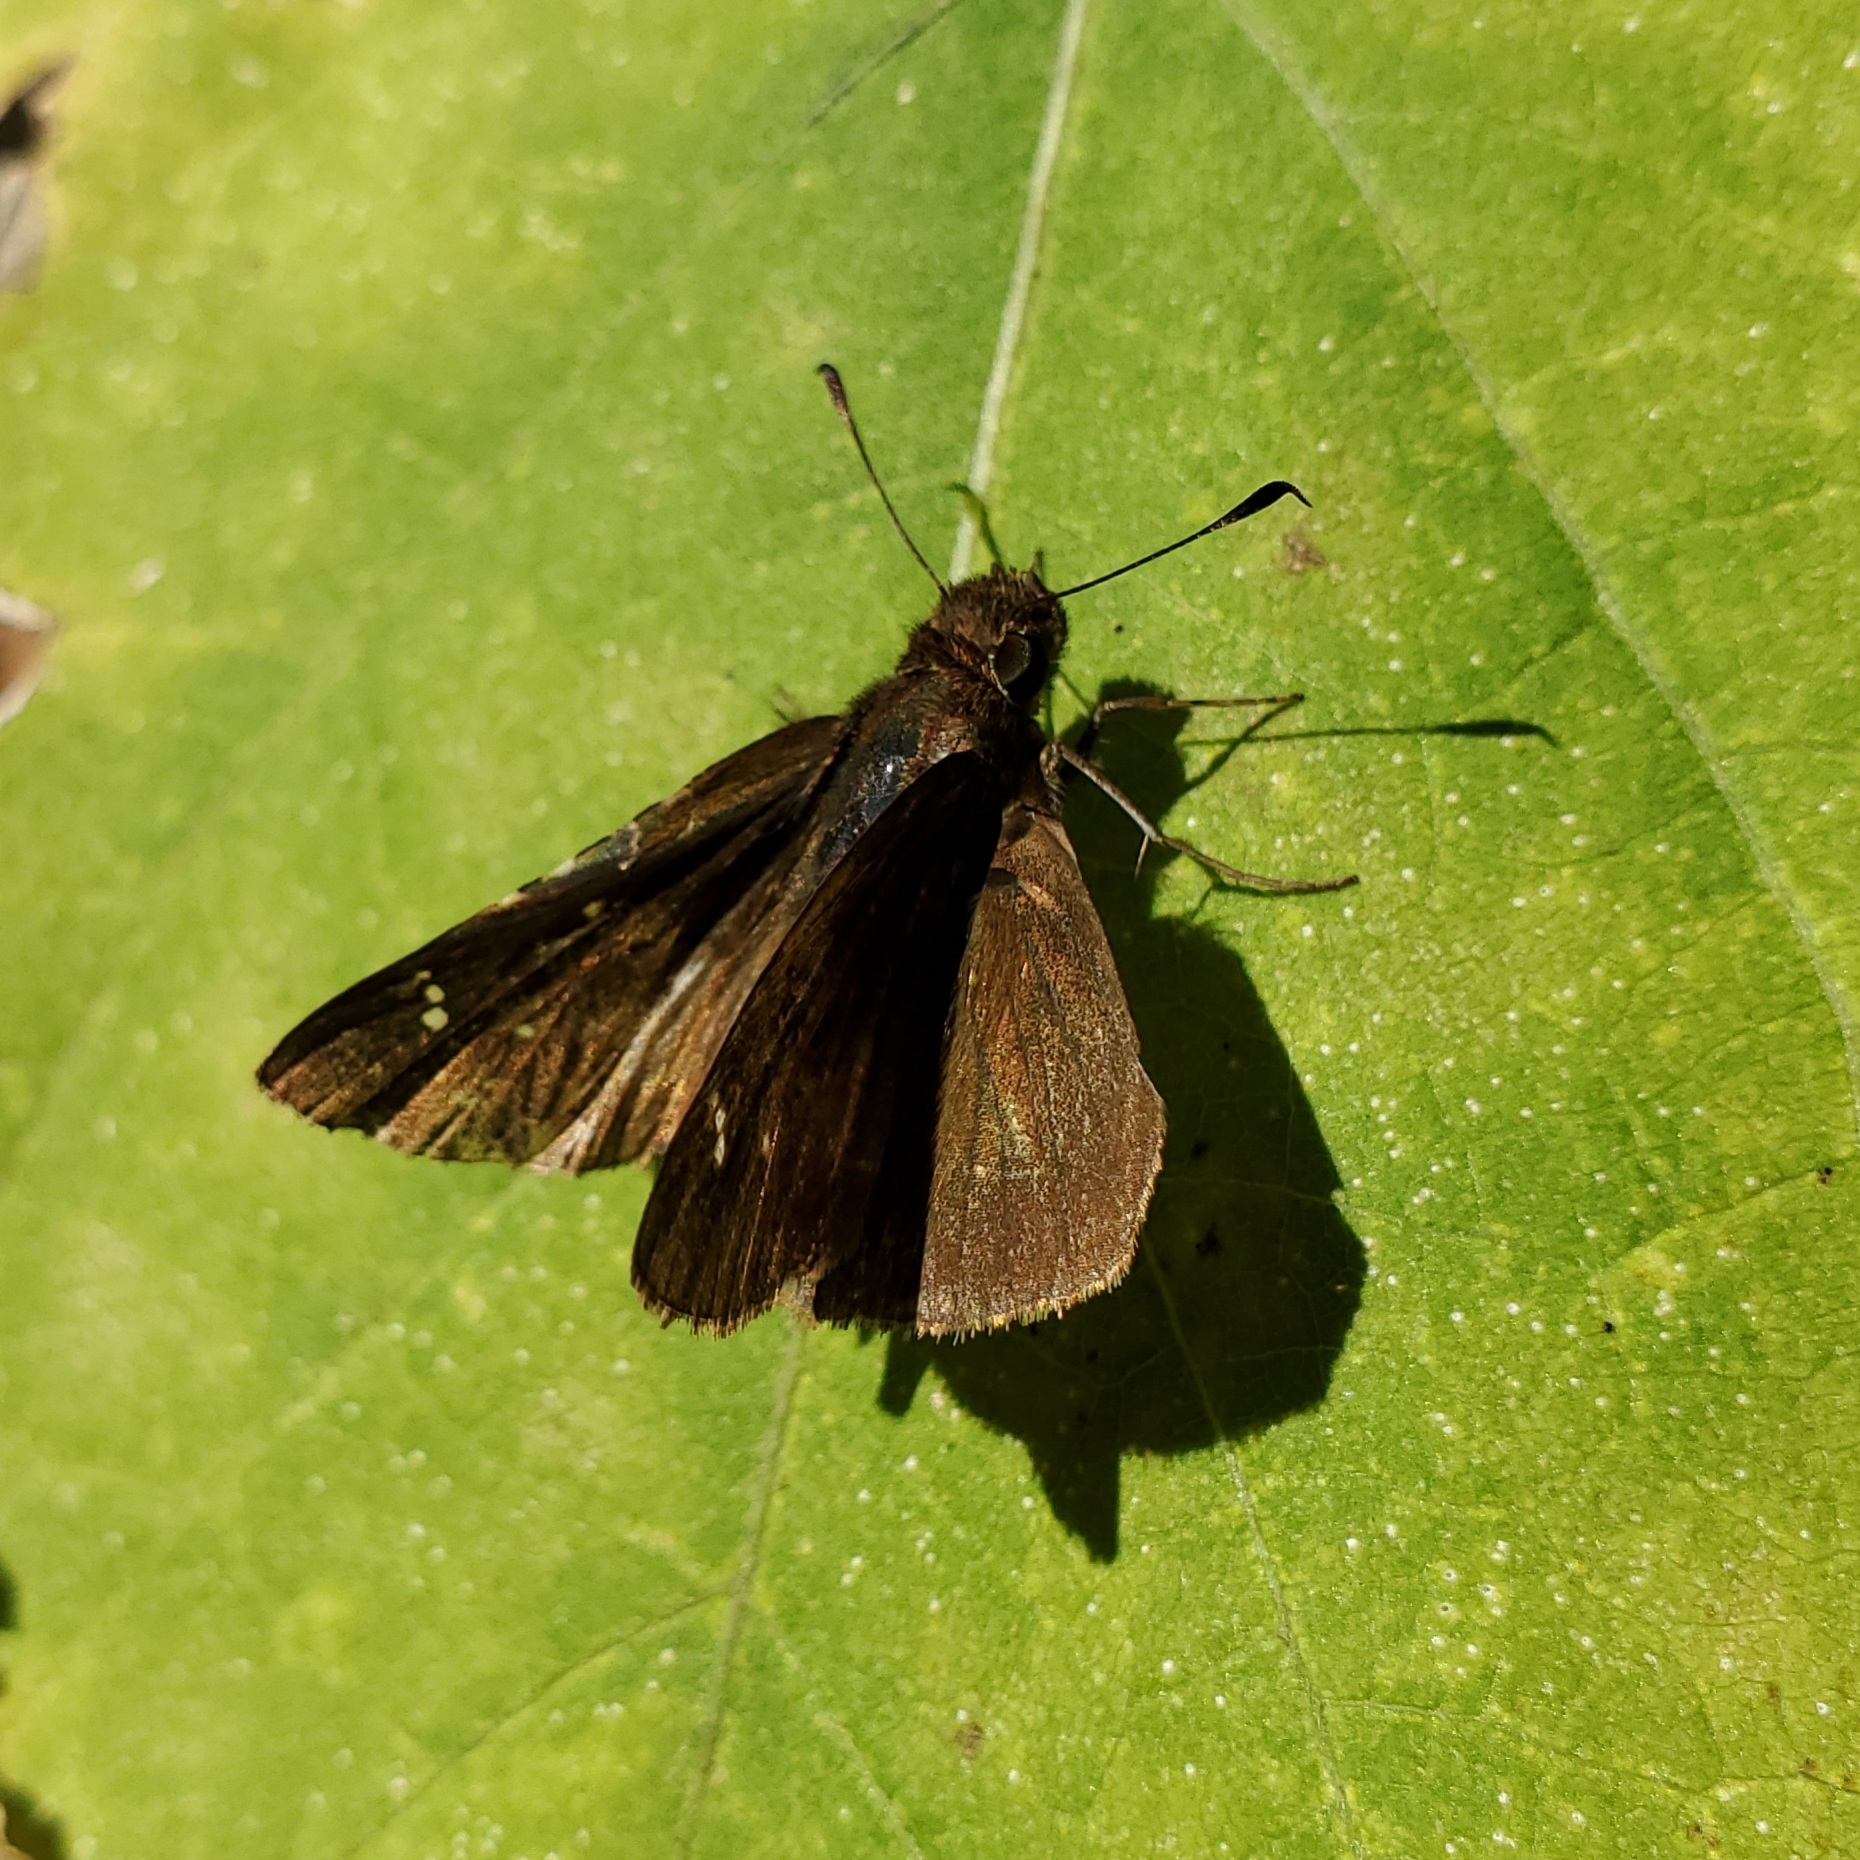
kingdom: Animalia
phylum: Arthropoda
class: Insecta
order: Lepidoptera
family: Hesperiidae
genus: Lerema
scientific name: Lerema accius
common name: Clouded skipper
